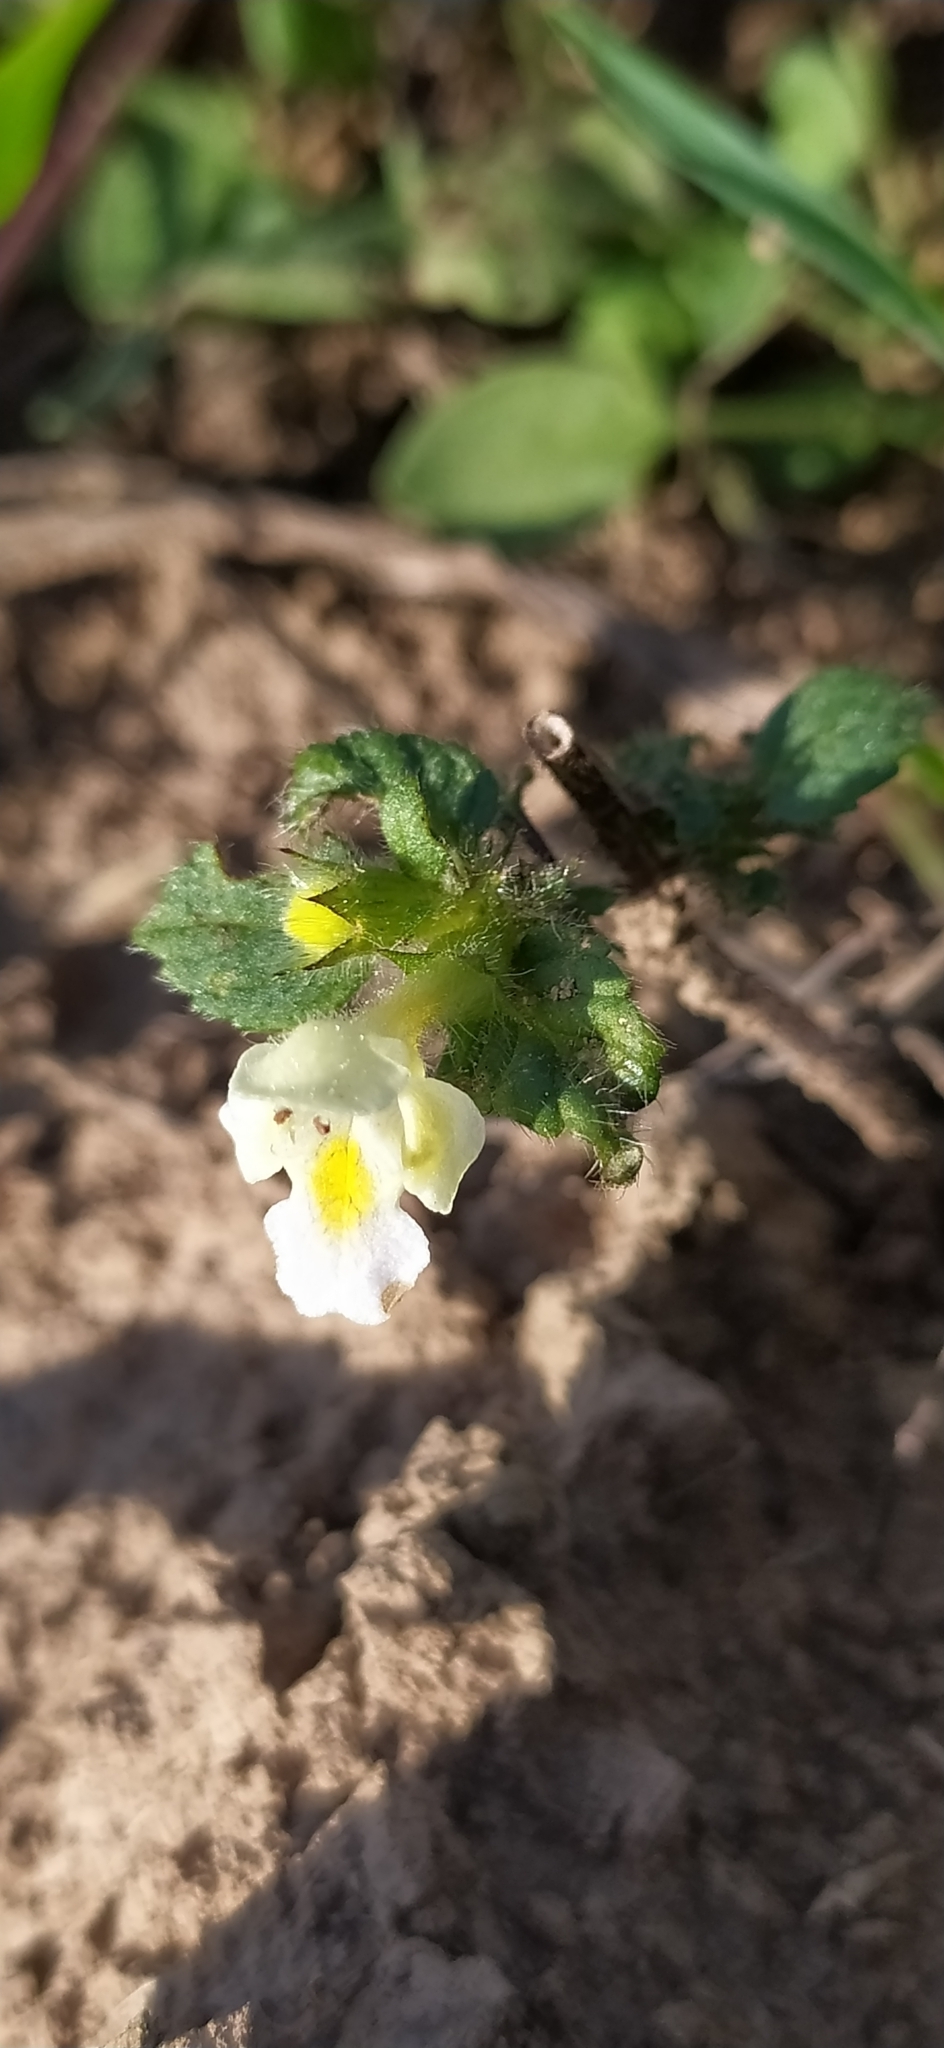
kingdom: Plantae
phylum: Tracheophyta
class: Magnoliopsida
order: Lamiales
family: Lamiaceae
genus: Galeopsis
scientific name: Galeopsis speciosa
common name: Large-flowered hemp-nettle
